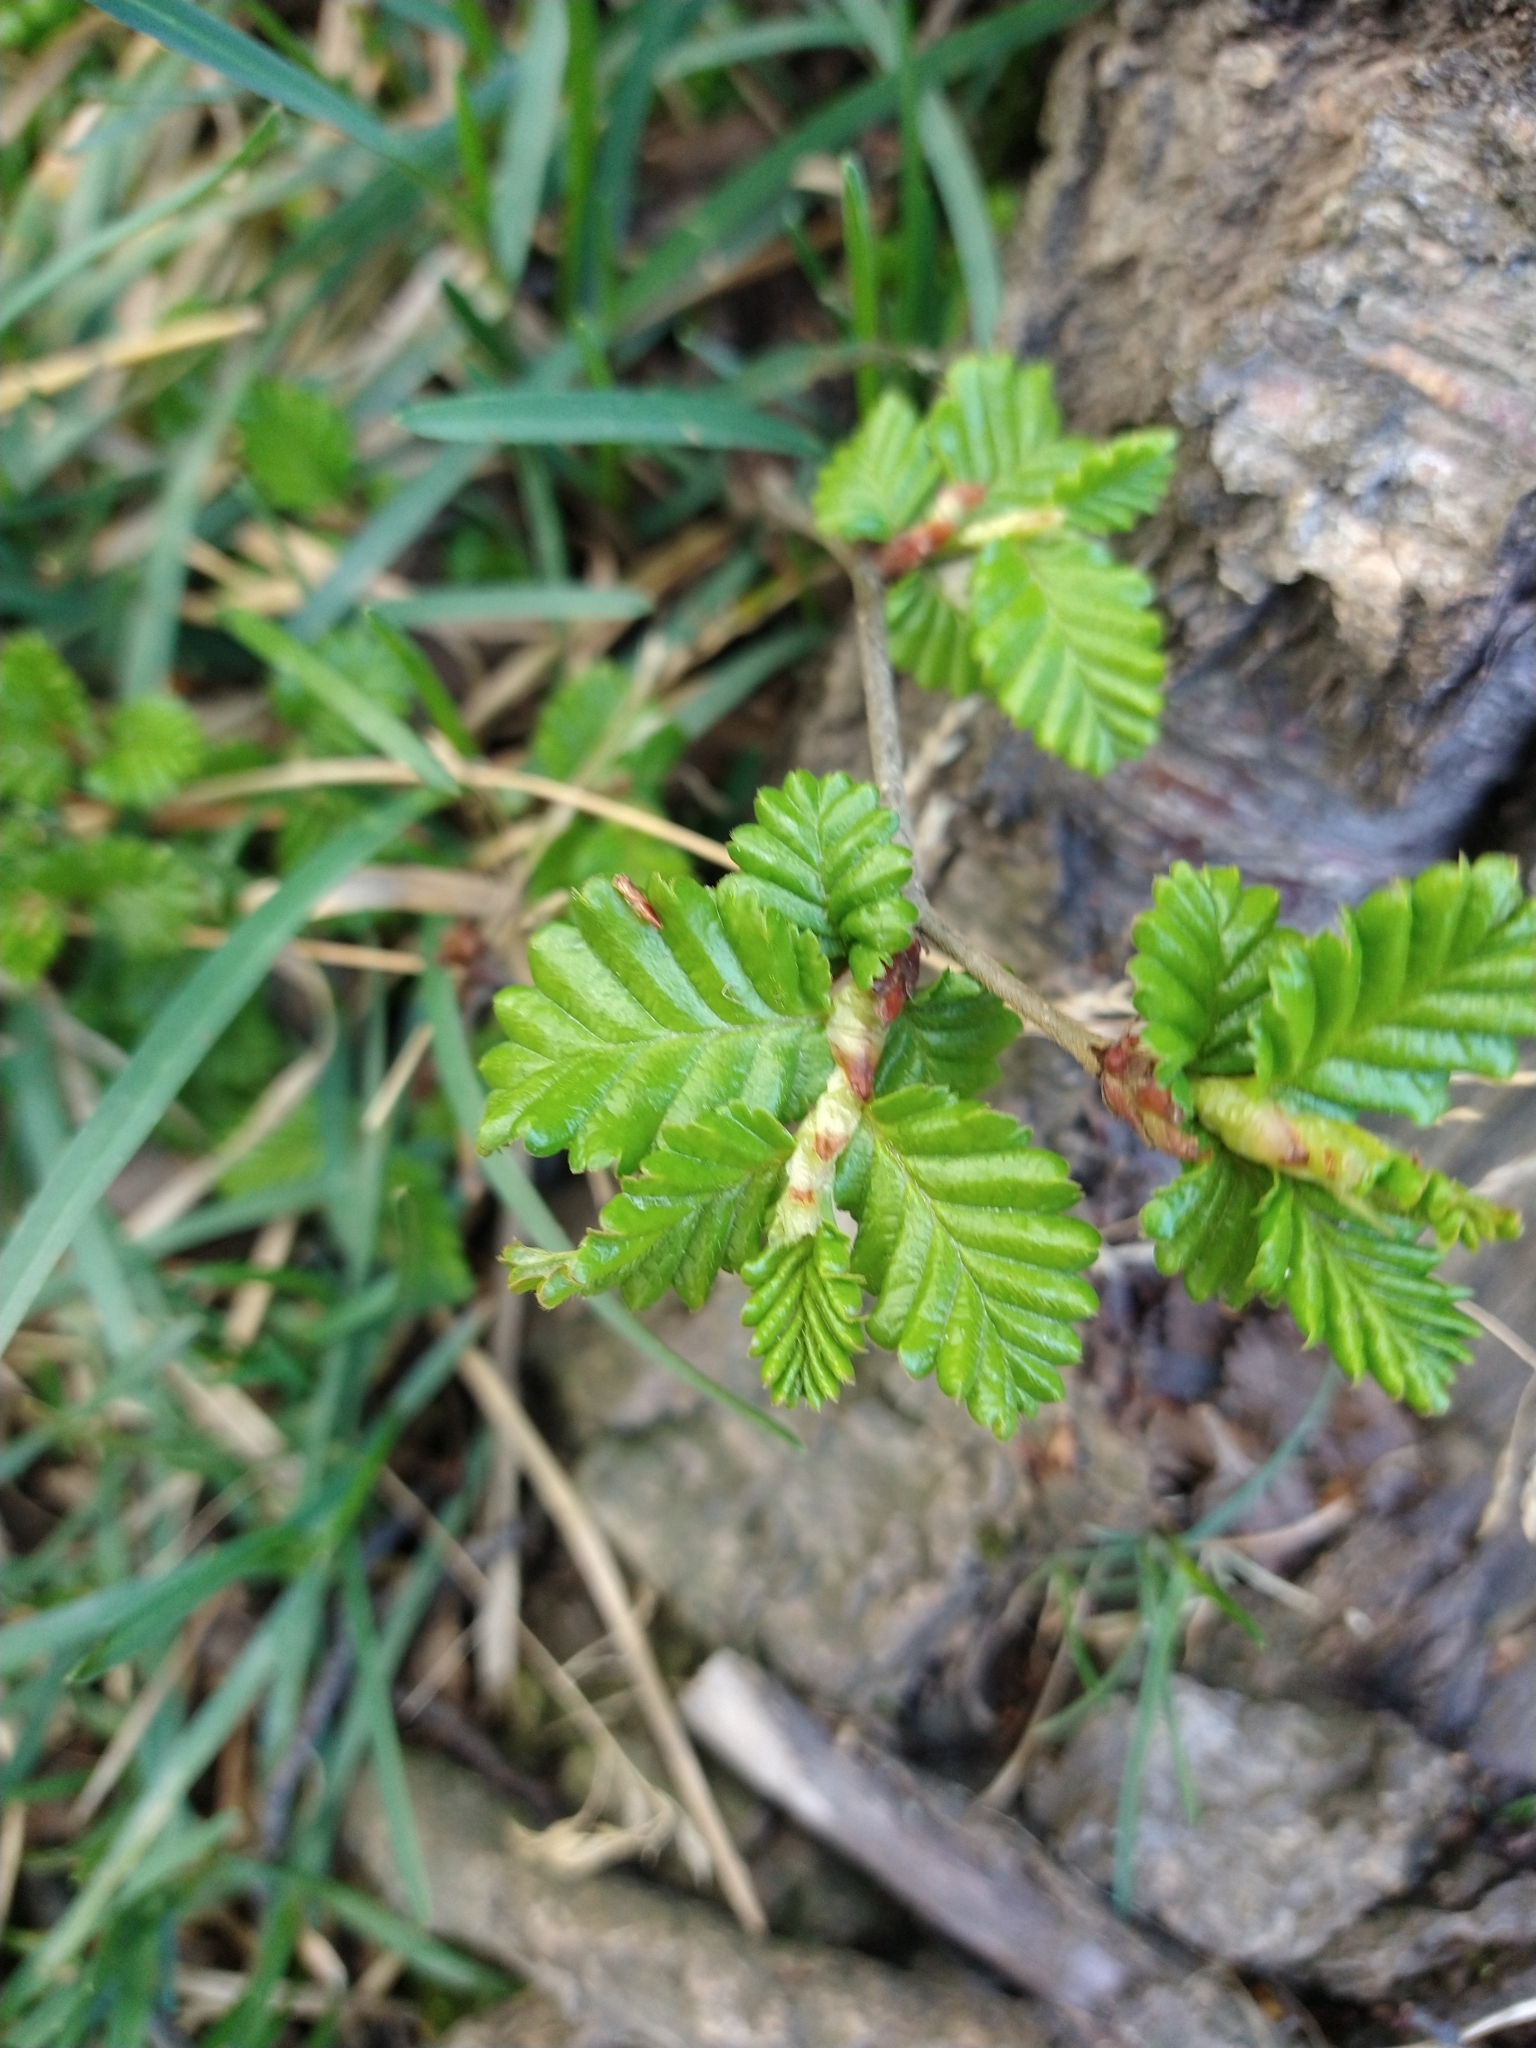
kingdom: Plantae
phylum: Tracheophyta
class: Magnoliopsida
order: Fagales
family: Nothofagaceae
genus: Nothofagus
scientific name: Nothofagus pumilio
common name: Lenga beech
